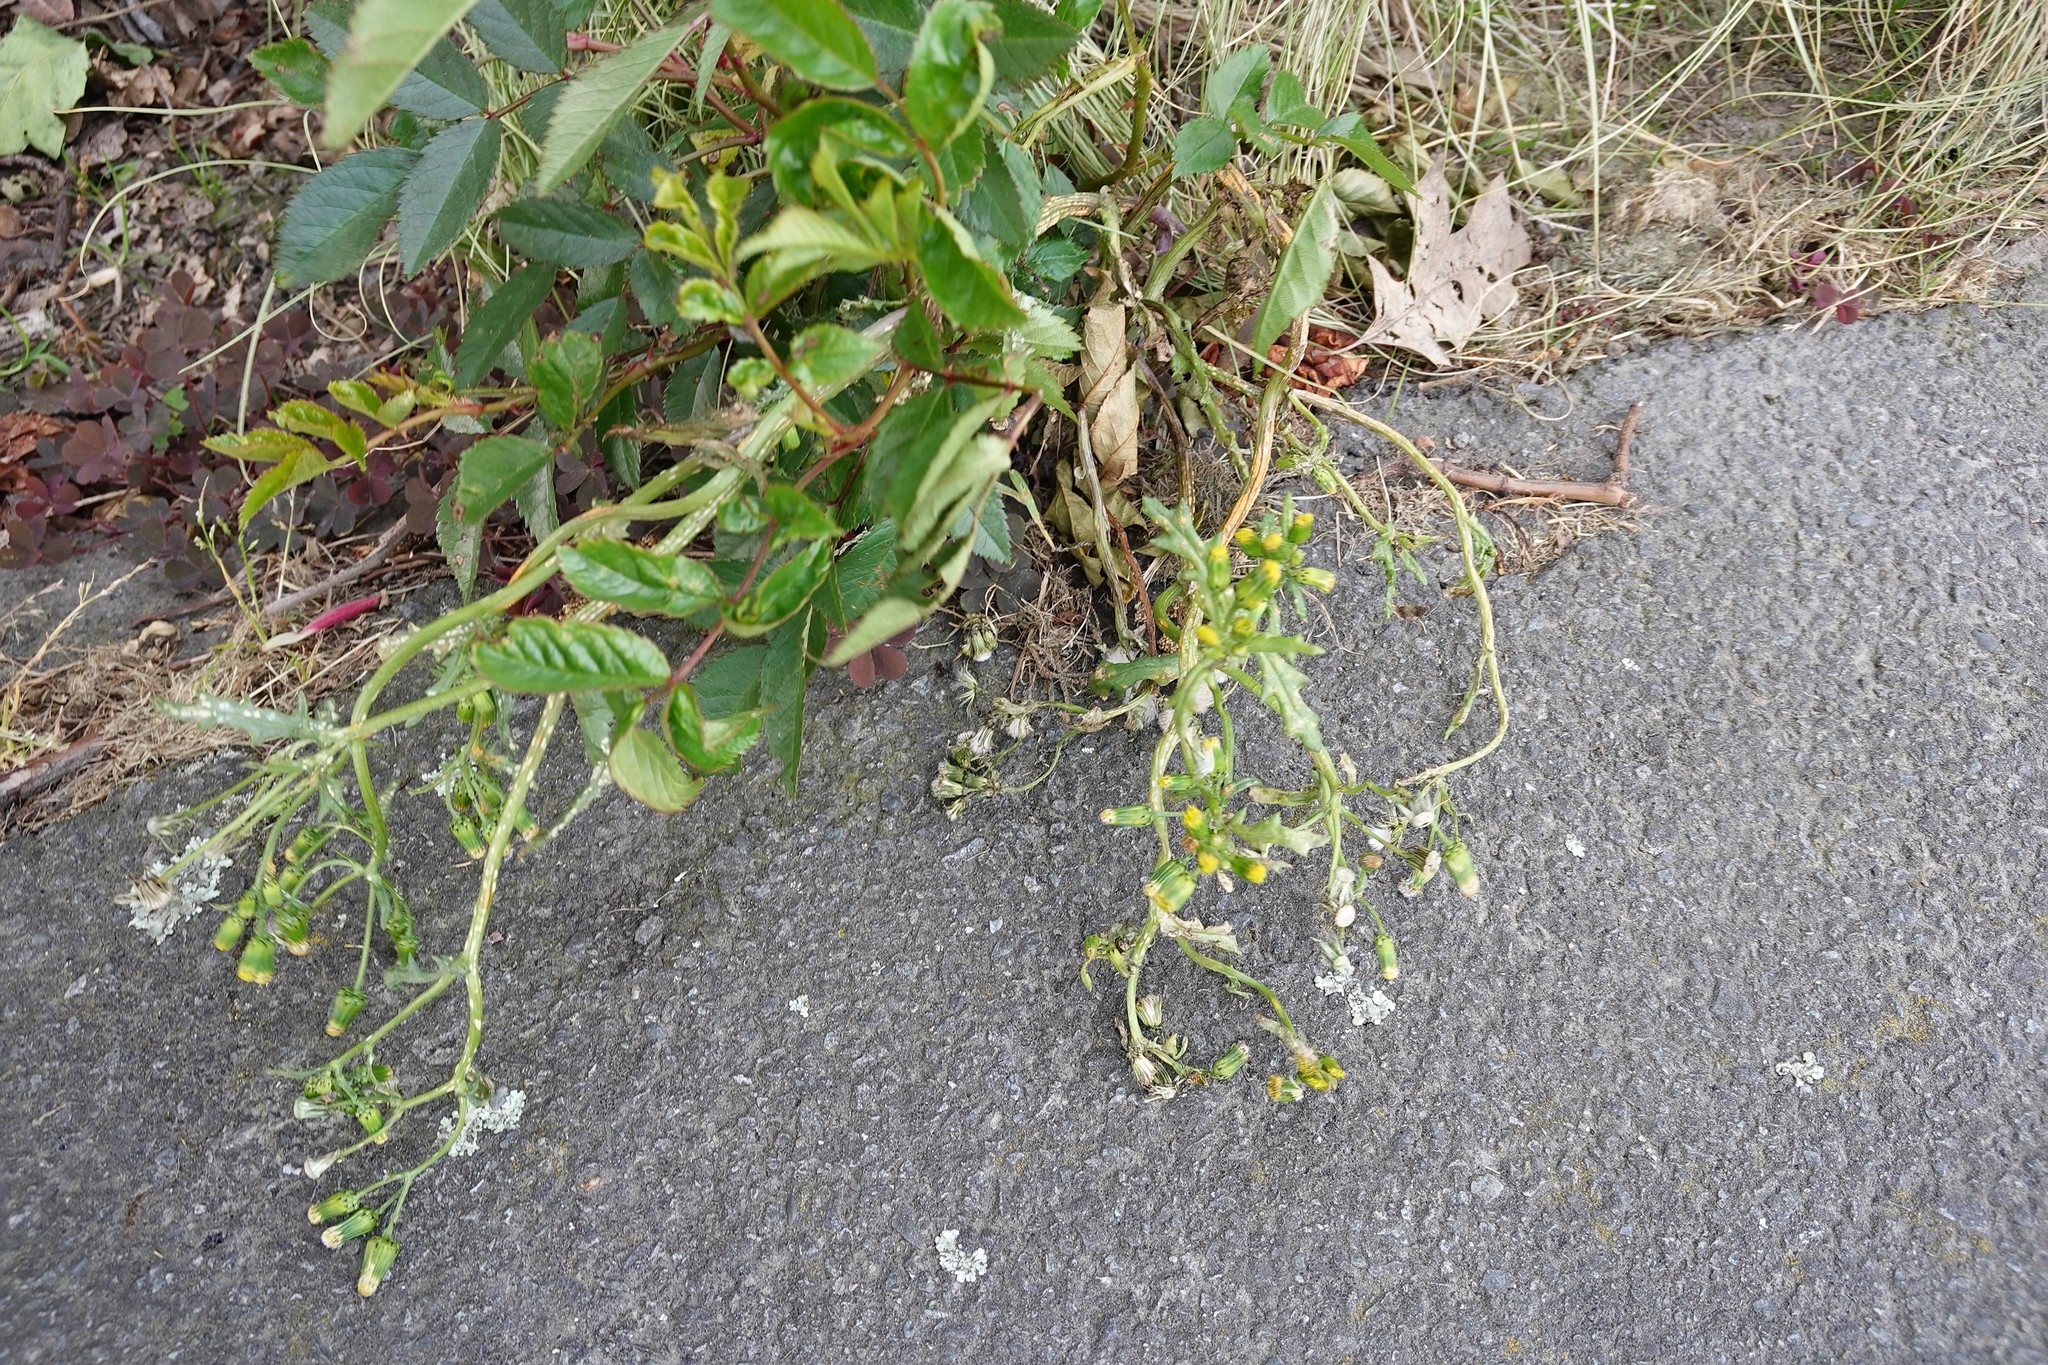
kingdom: Plantae
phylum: Tracheophyta
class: Magnoliopsida
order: Asterales
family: Asteraceae
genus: Senecio
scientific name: Senecio vulgaris
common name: Old-man-in-the-spring
